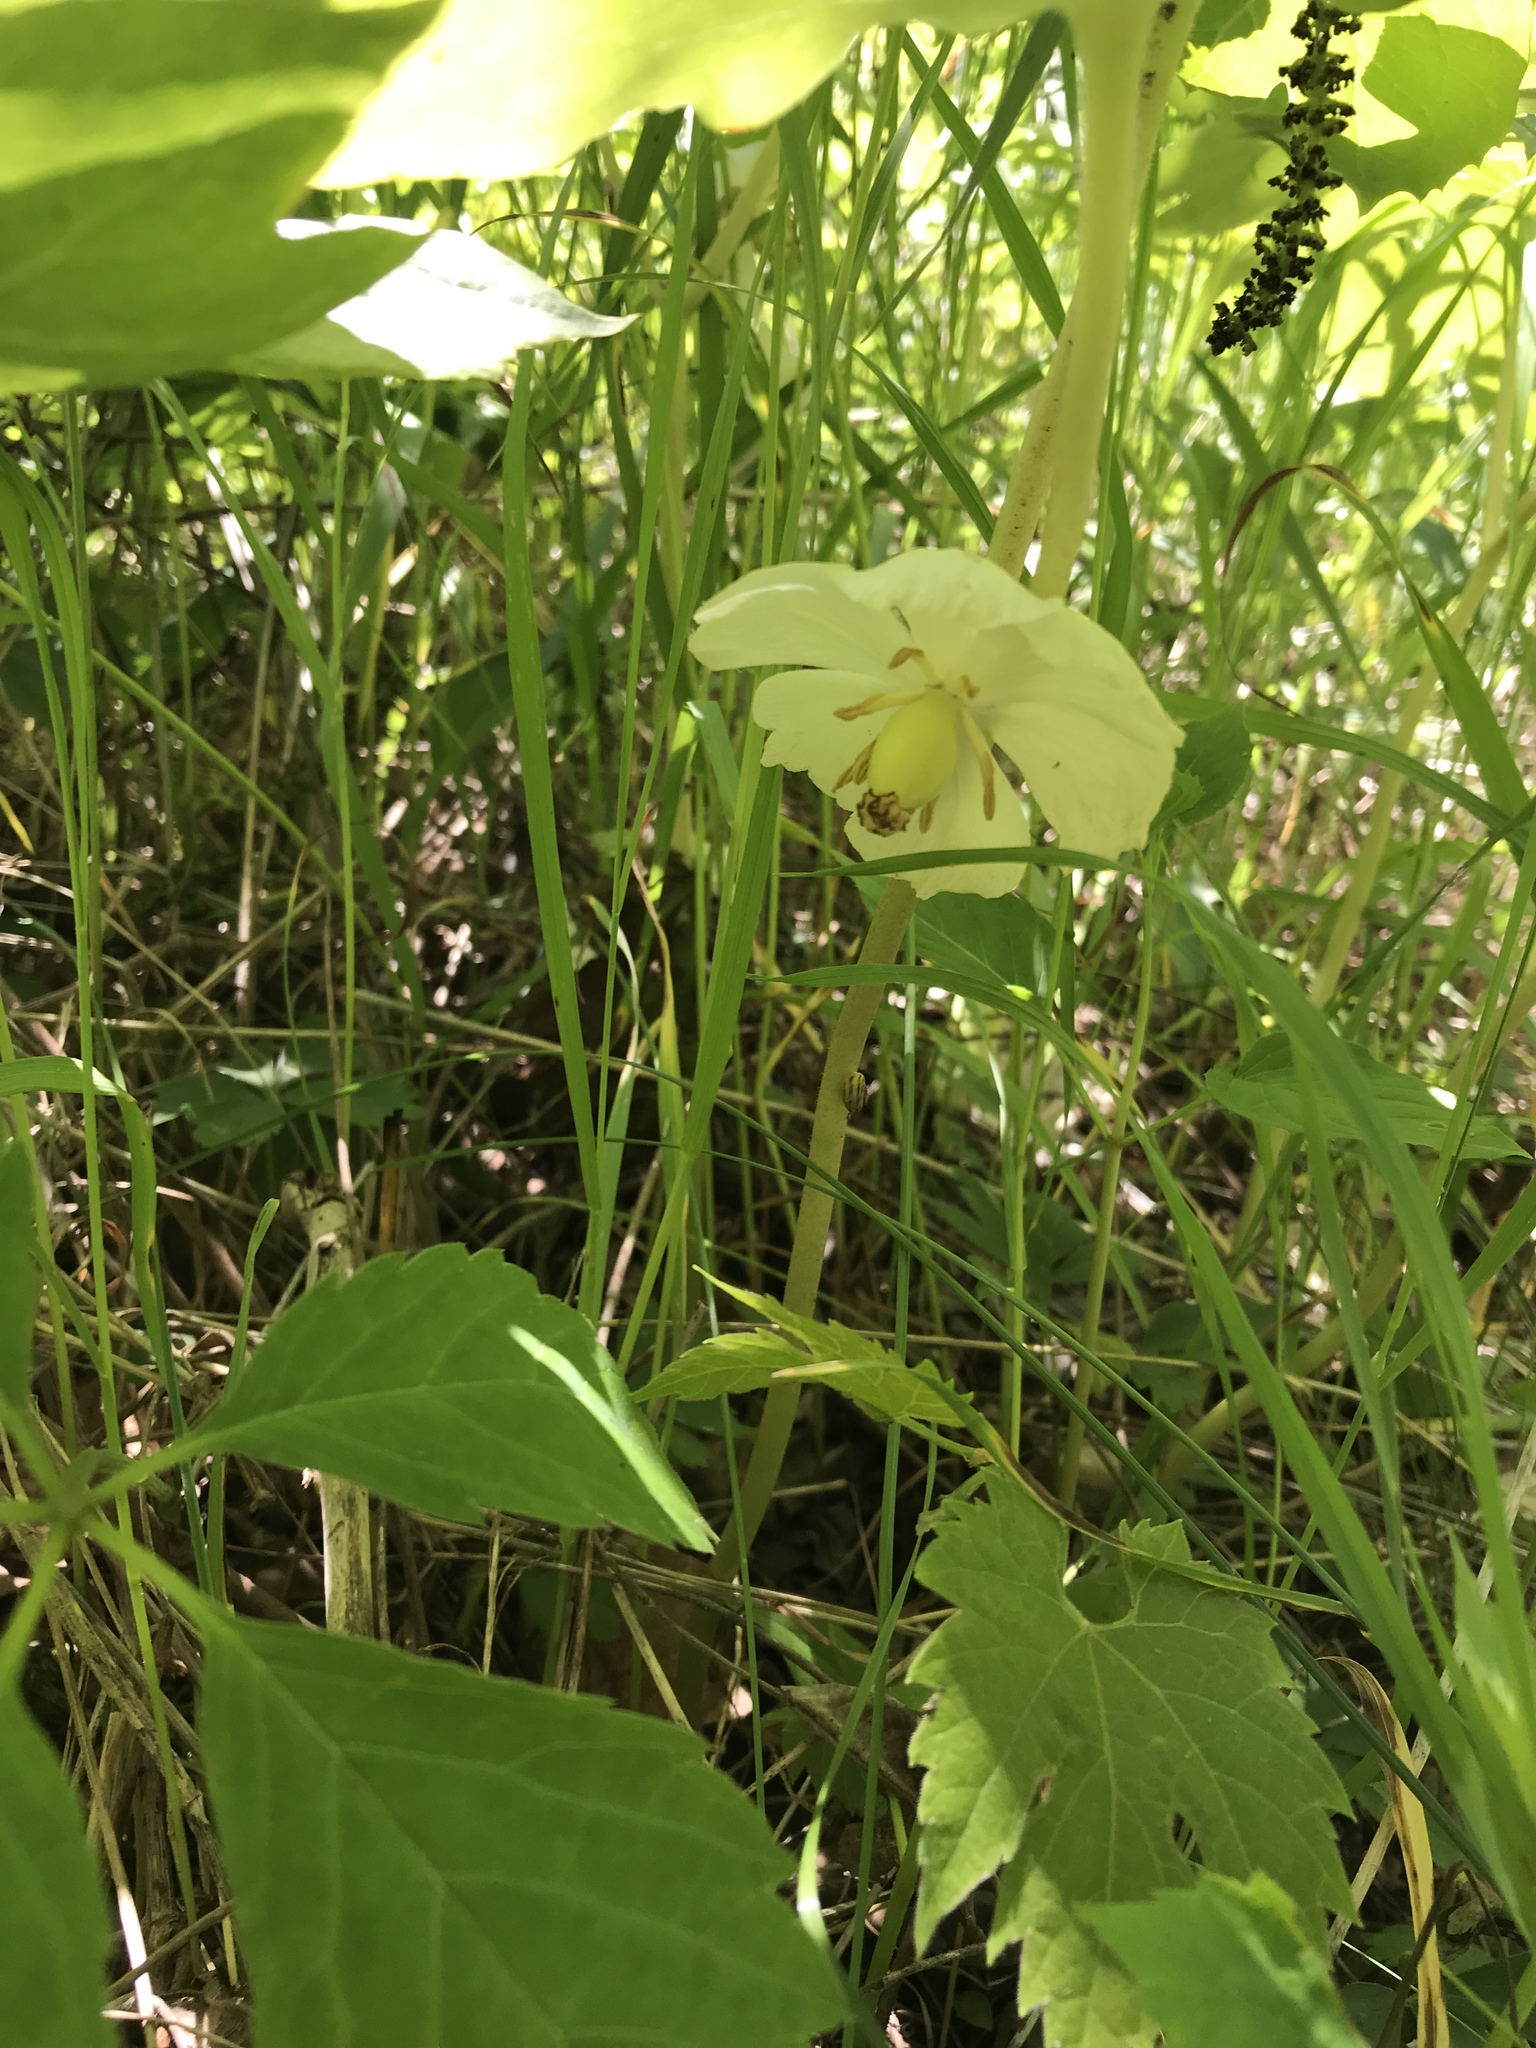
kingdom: Plantae
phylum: Tracheophyta
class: Magnoliopsida
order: Ranunculales
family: Berberidaceae
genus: Podophyllum
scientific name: Podophyllum peltatum
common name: Wild mandrake
